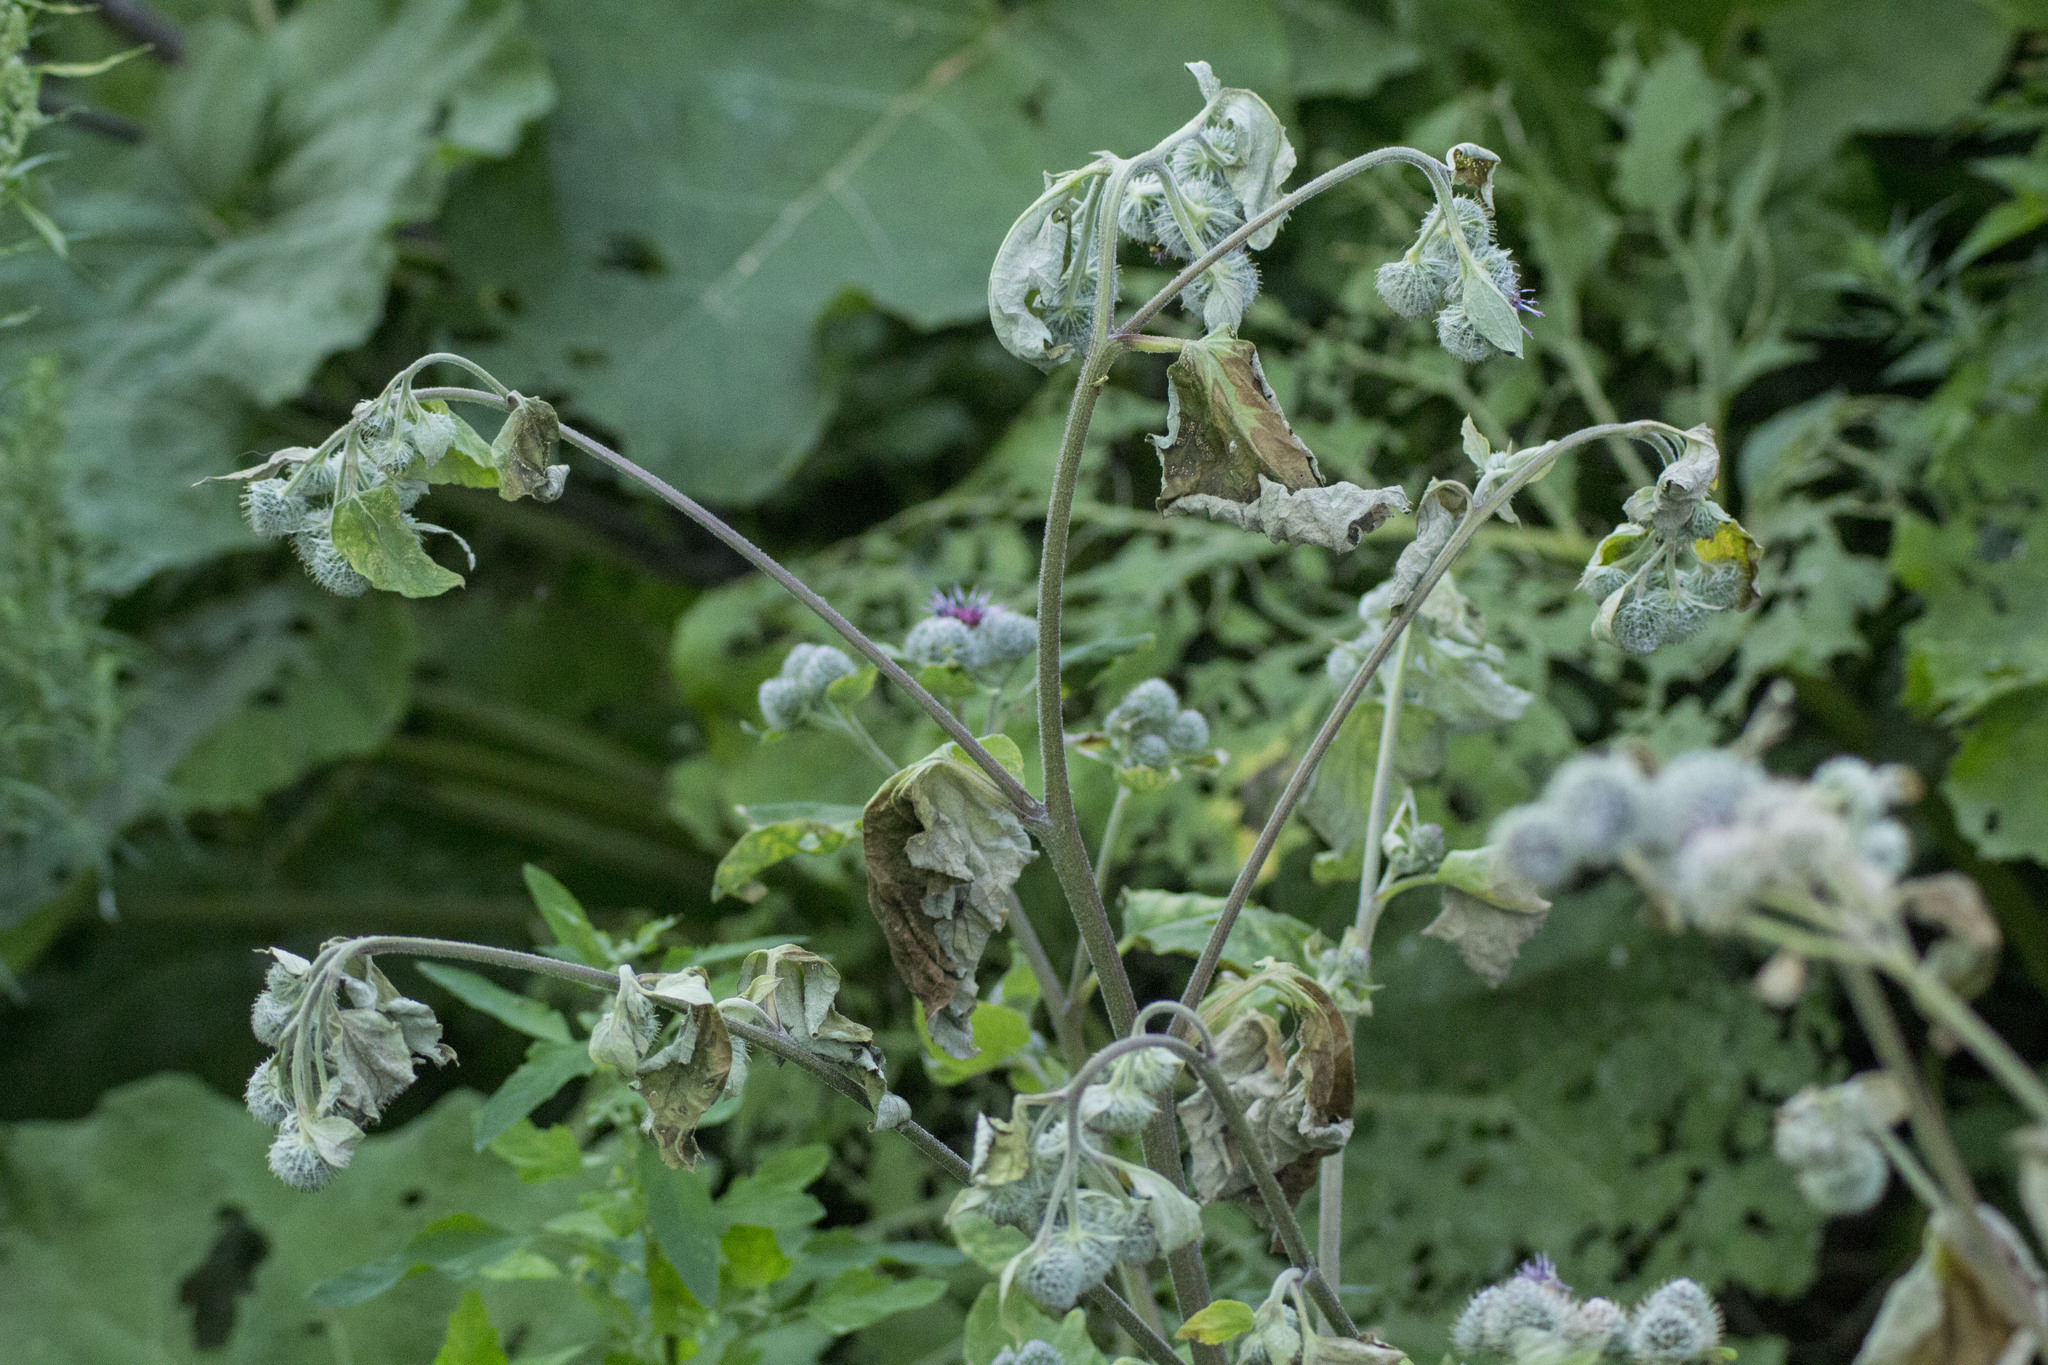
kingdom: Plantae
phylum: Tracheophyta
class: Magnoliopsida
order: Asterales
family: Asteraceae
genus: Arctium
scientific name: Arctium tomentosum
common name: Woolly burdock
